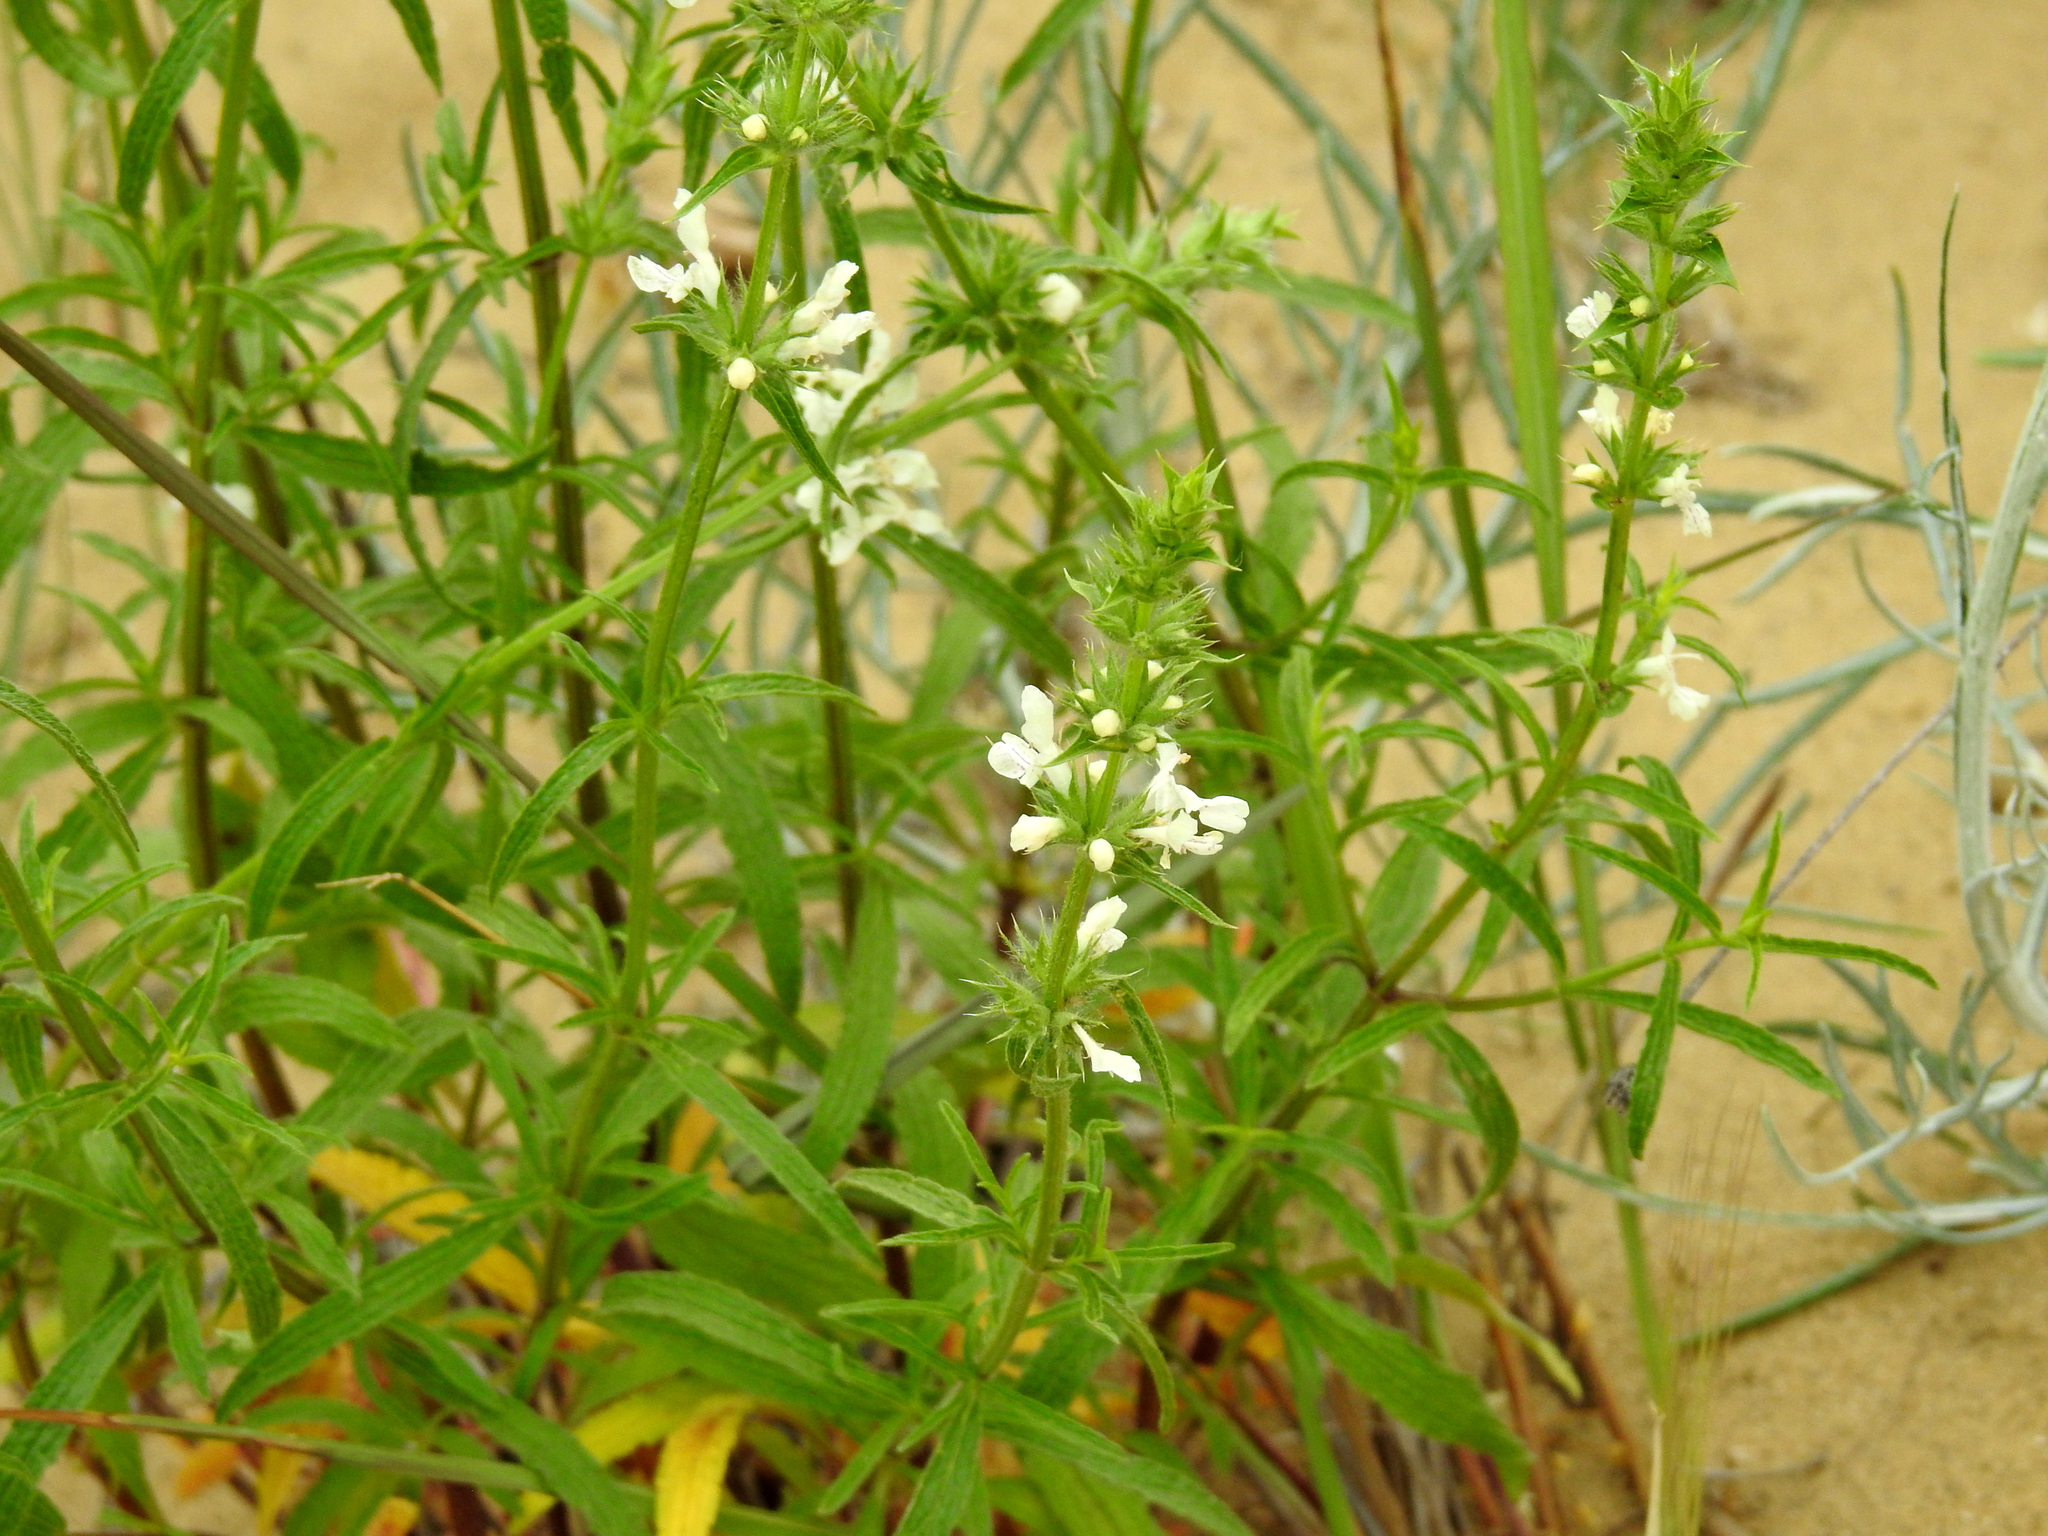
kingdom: Plantae
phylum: Tracheophyta
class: Magnoliopsida
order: Lamiales
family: Lamiaceae
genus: Stachys
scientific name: Stachys atherocalyx
